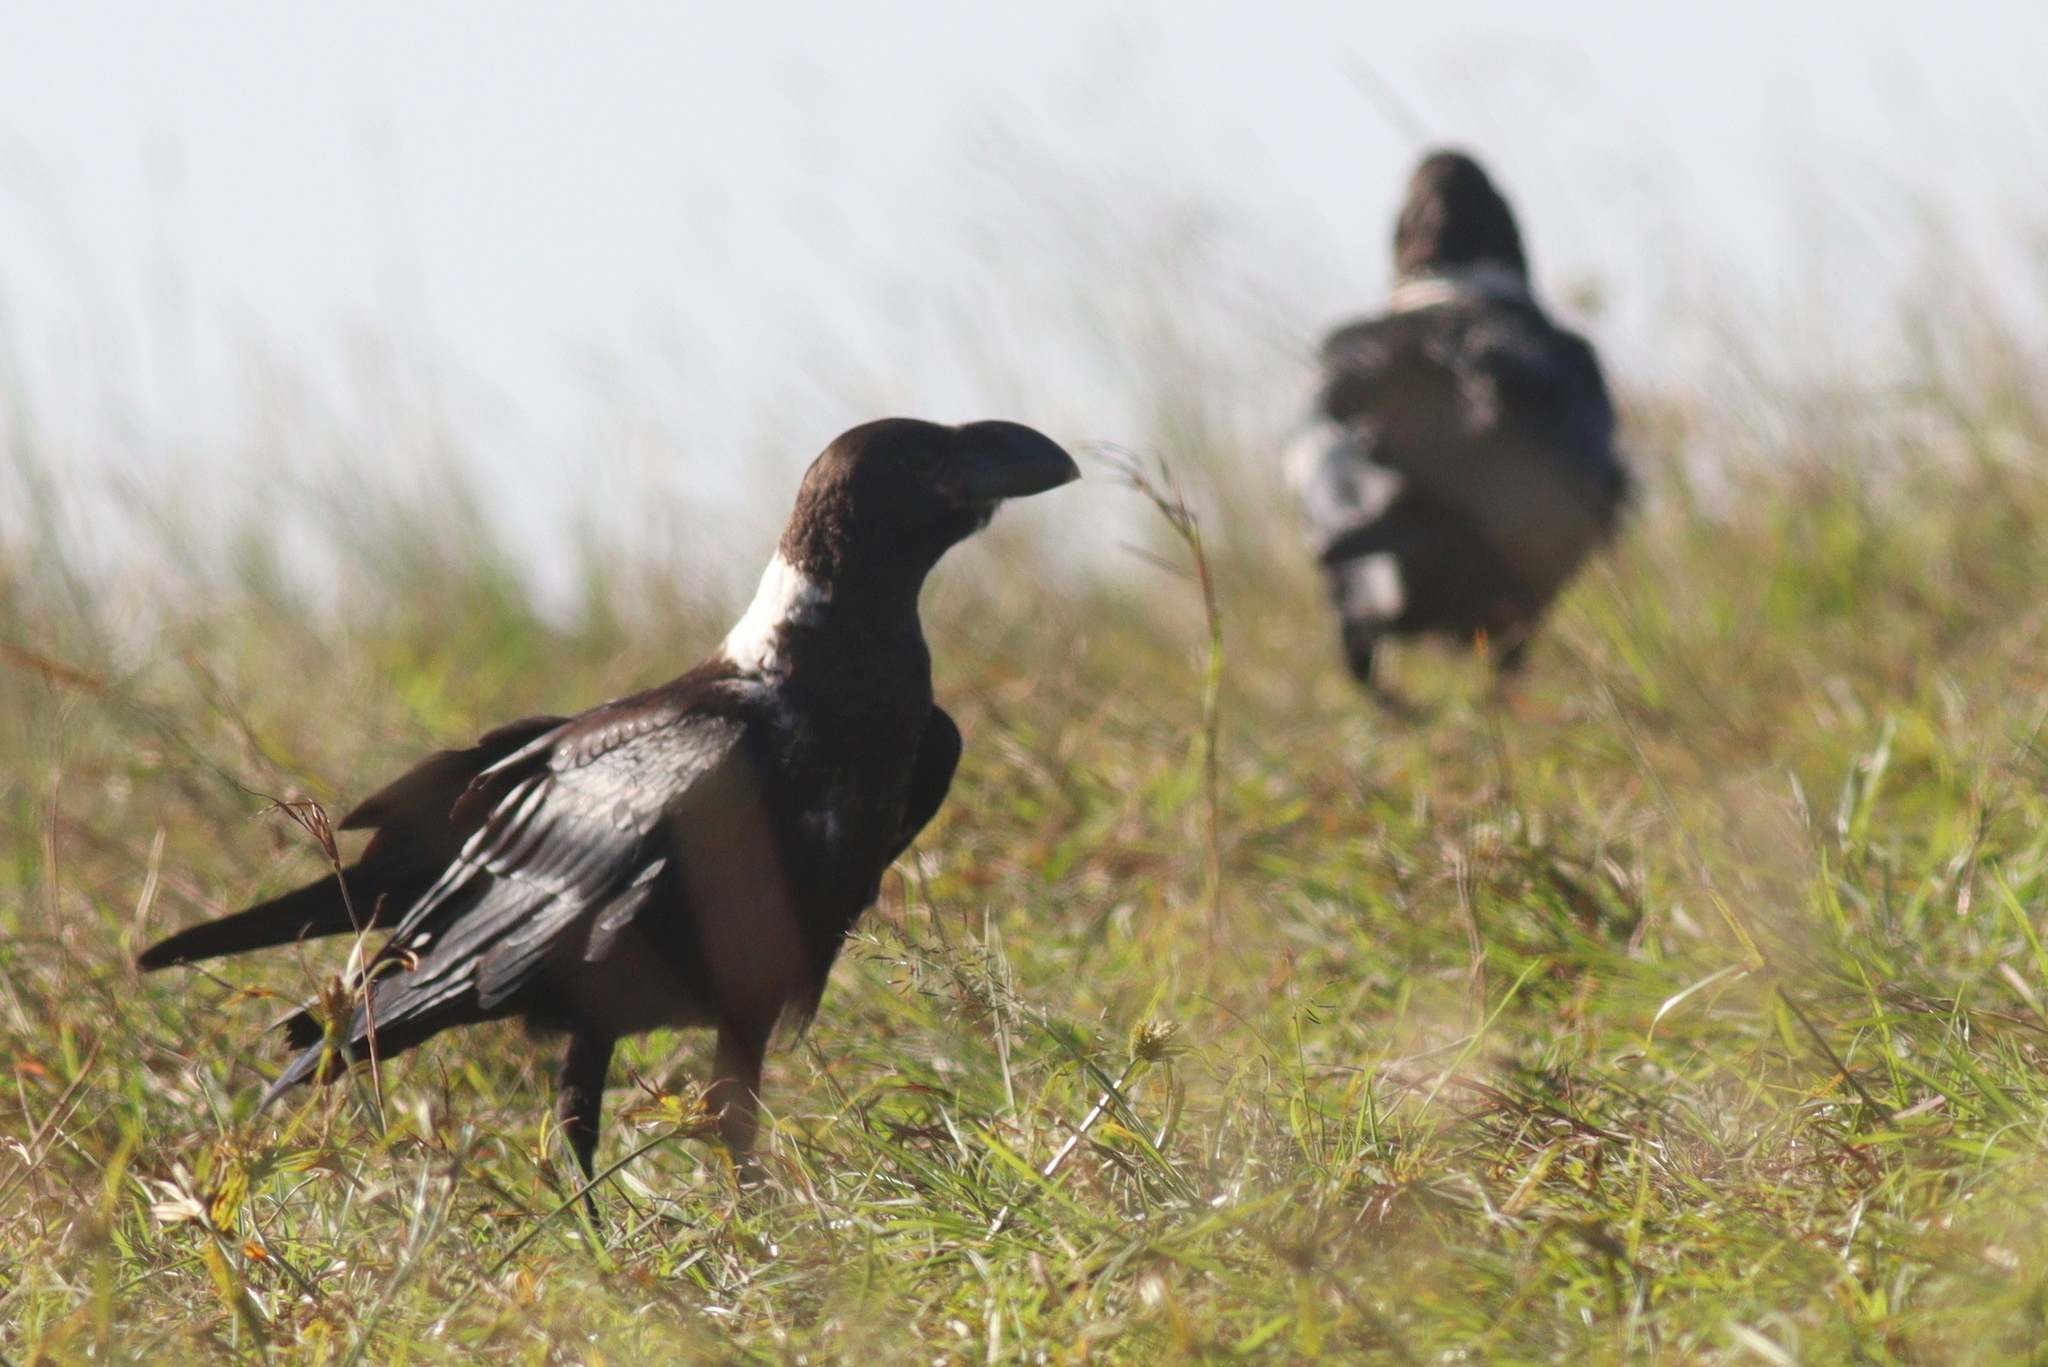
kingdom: Animalia
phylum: Chordata
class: Aves
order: Passeriformes
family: Corvidae
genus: Corvus
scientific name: Corvus albicollis
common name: White-necked raven
